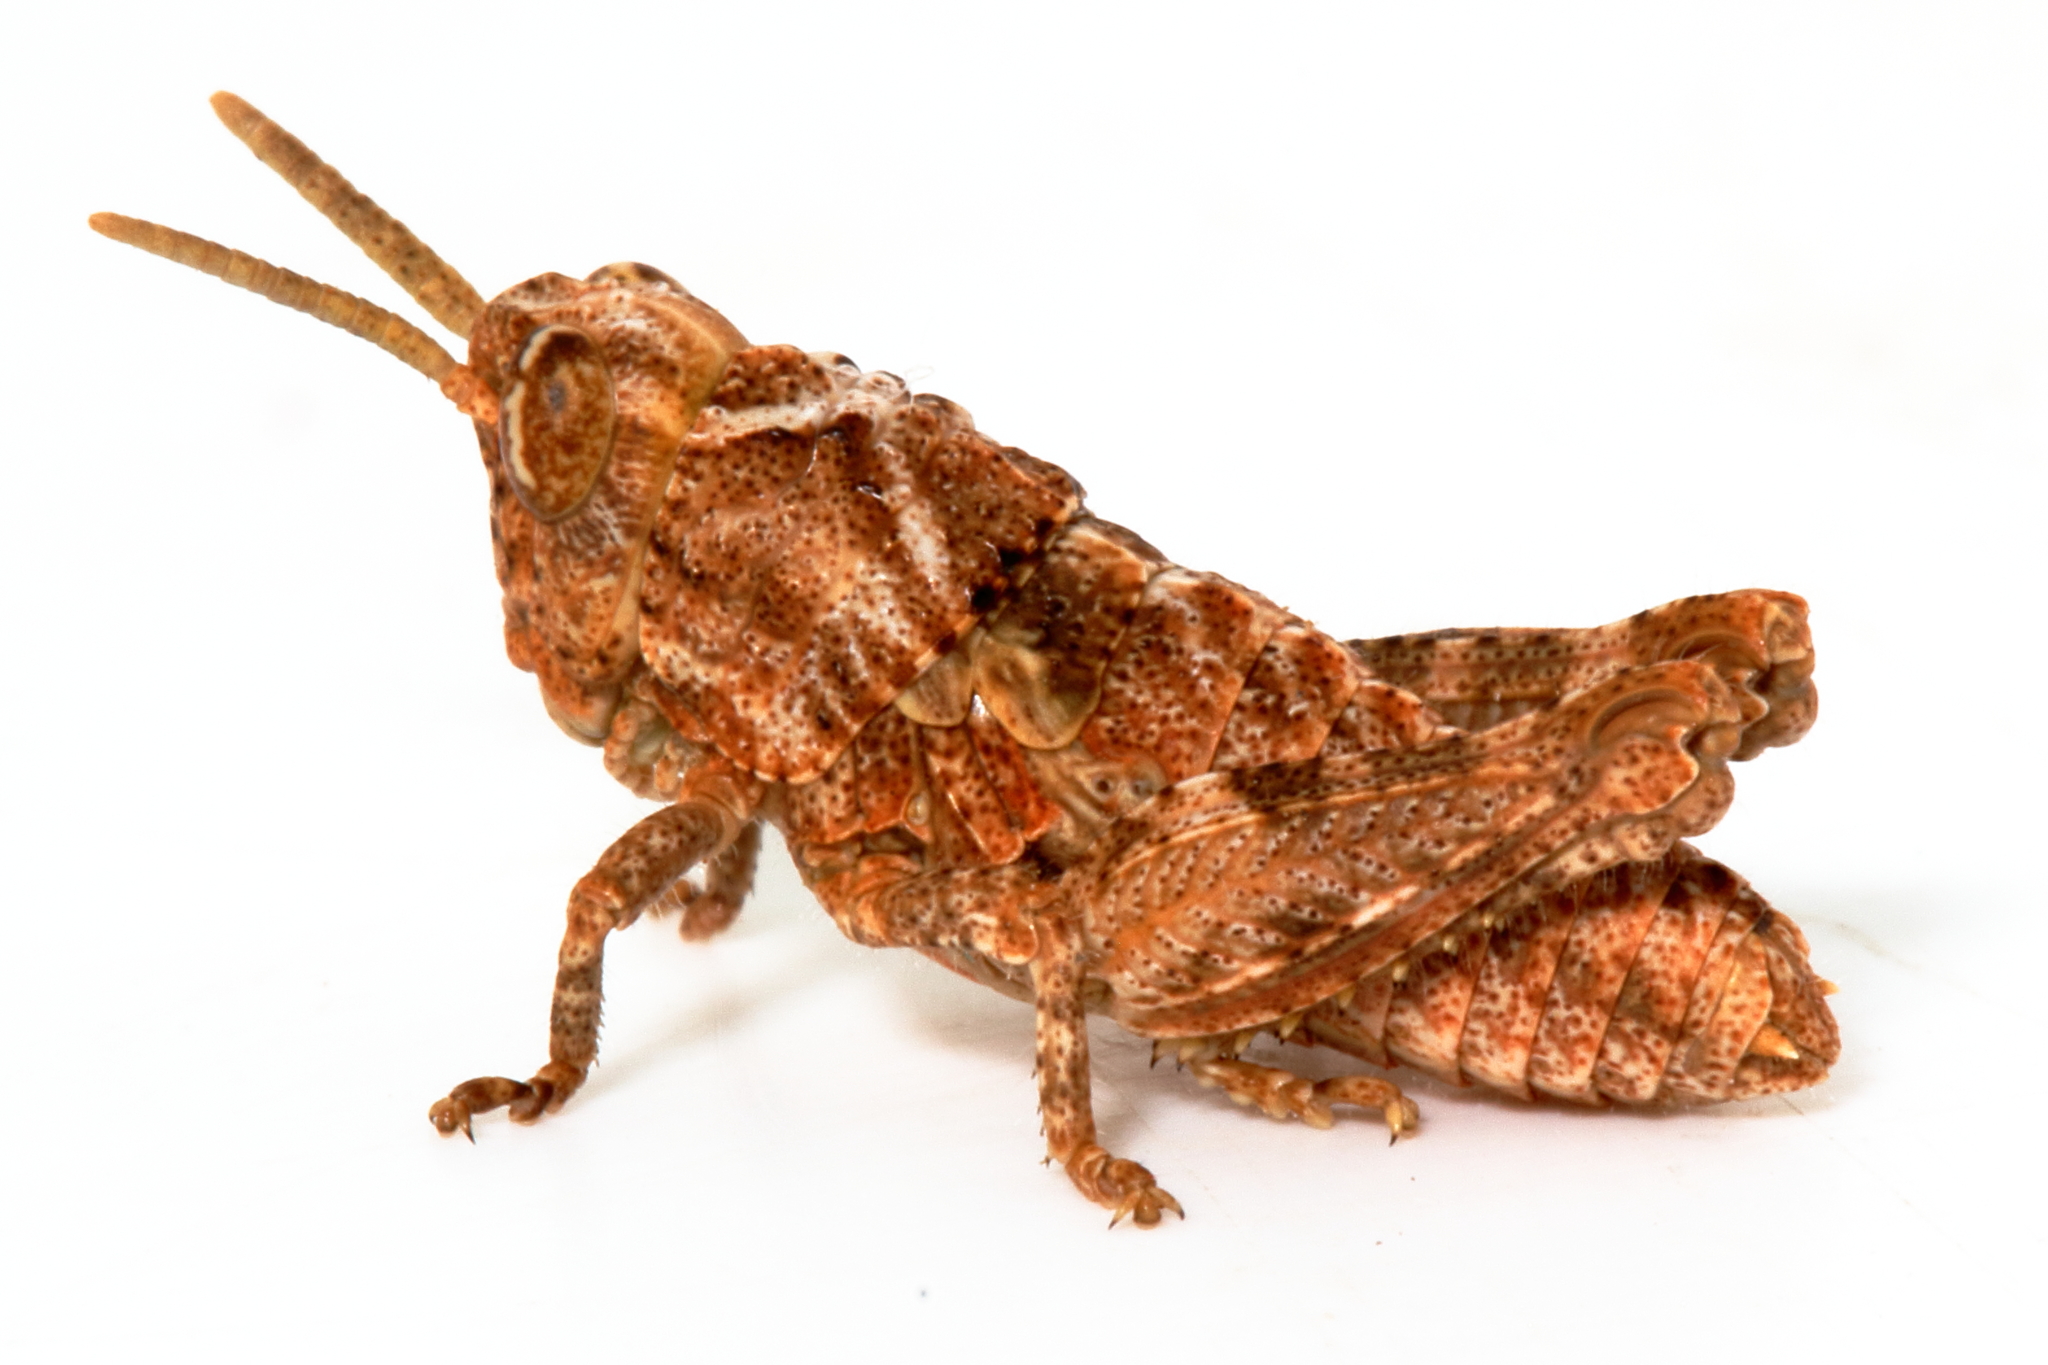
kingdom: Animalia
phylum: Arthropoda
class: Insecta
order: Orthoptera
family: Acrididae
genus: Cratilopus
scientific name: Cratilopus
